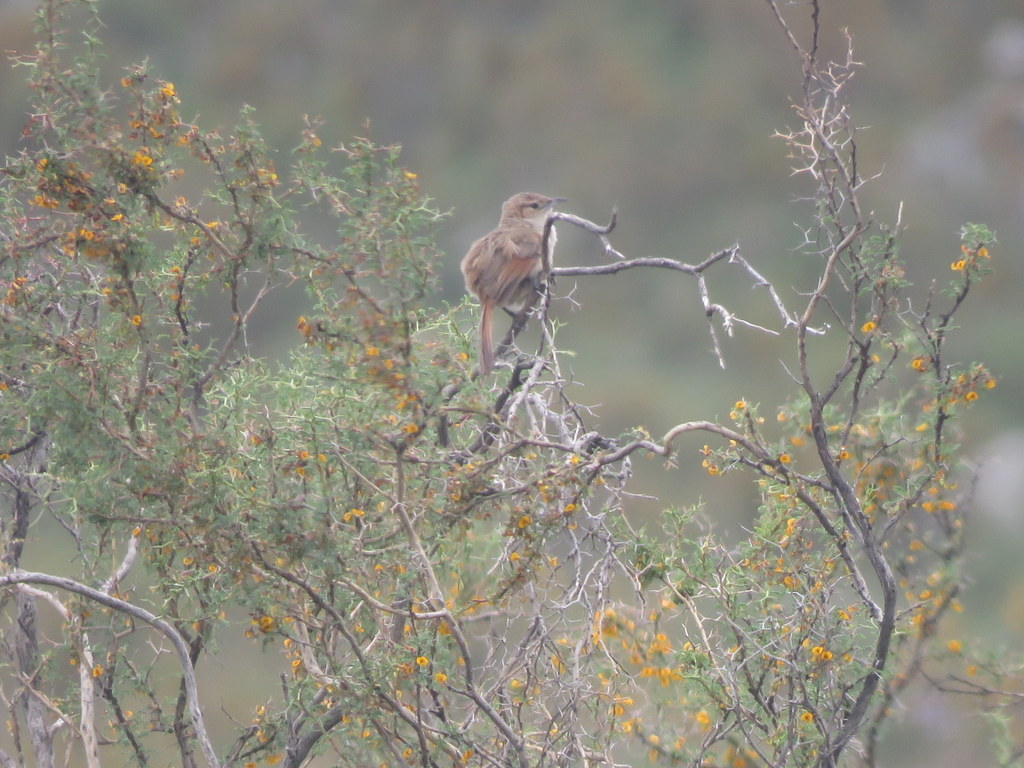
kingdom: Animalia
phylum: Chordata
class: Aves
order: Passeriformes
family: Furnariidae
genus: Phacellodomus
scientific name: Phacellodomus striaticeps
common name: Streak-fronted thornbird
